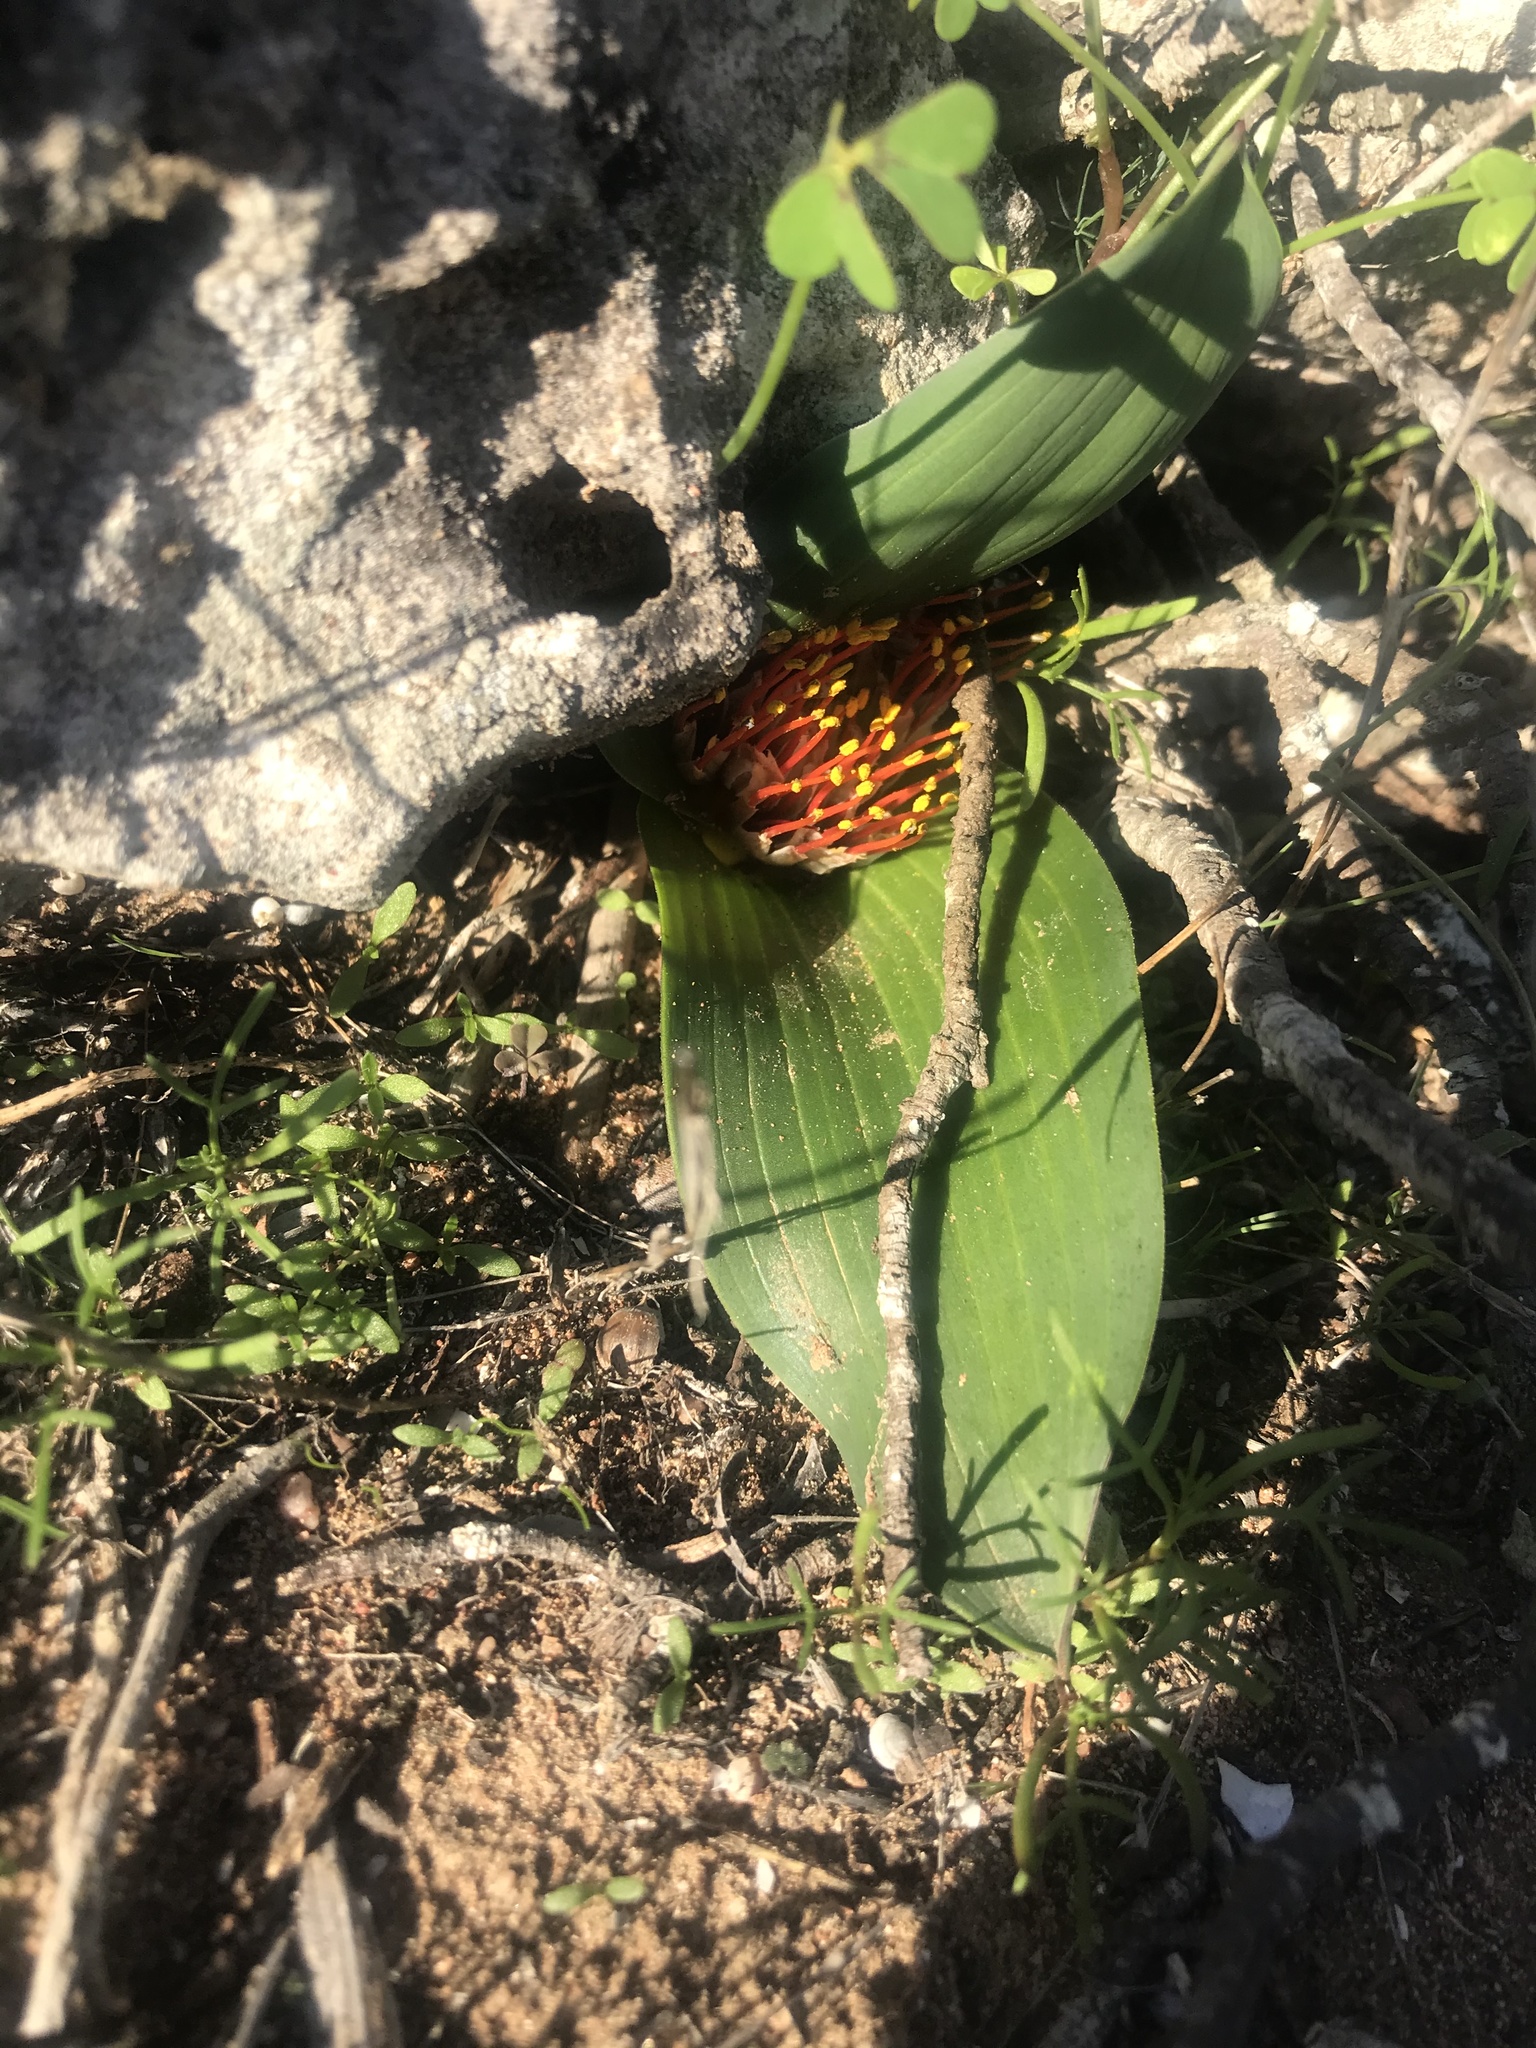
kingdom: Plantae
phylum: Tracheophyta
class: Liliopsida
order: Asparagales
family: Asparagaceae
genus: Daubenya
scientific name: Daubenya zeyheri
